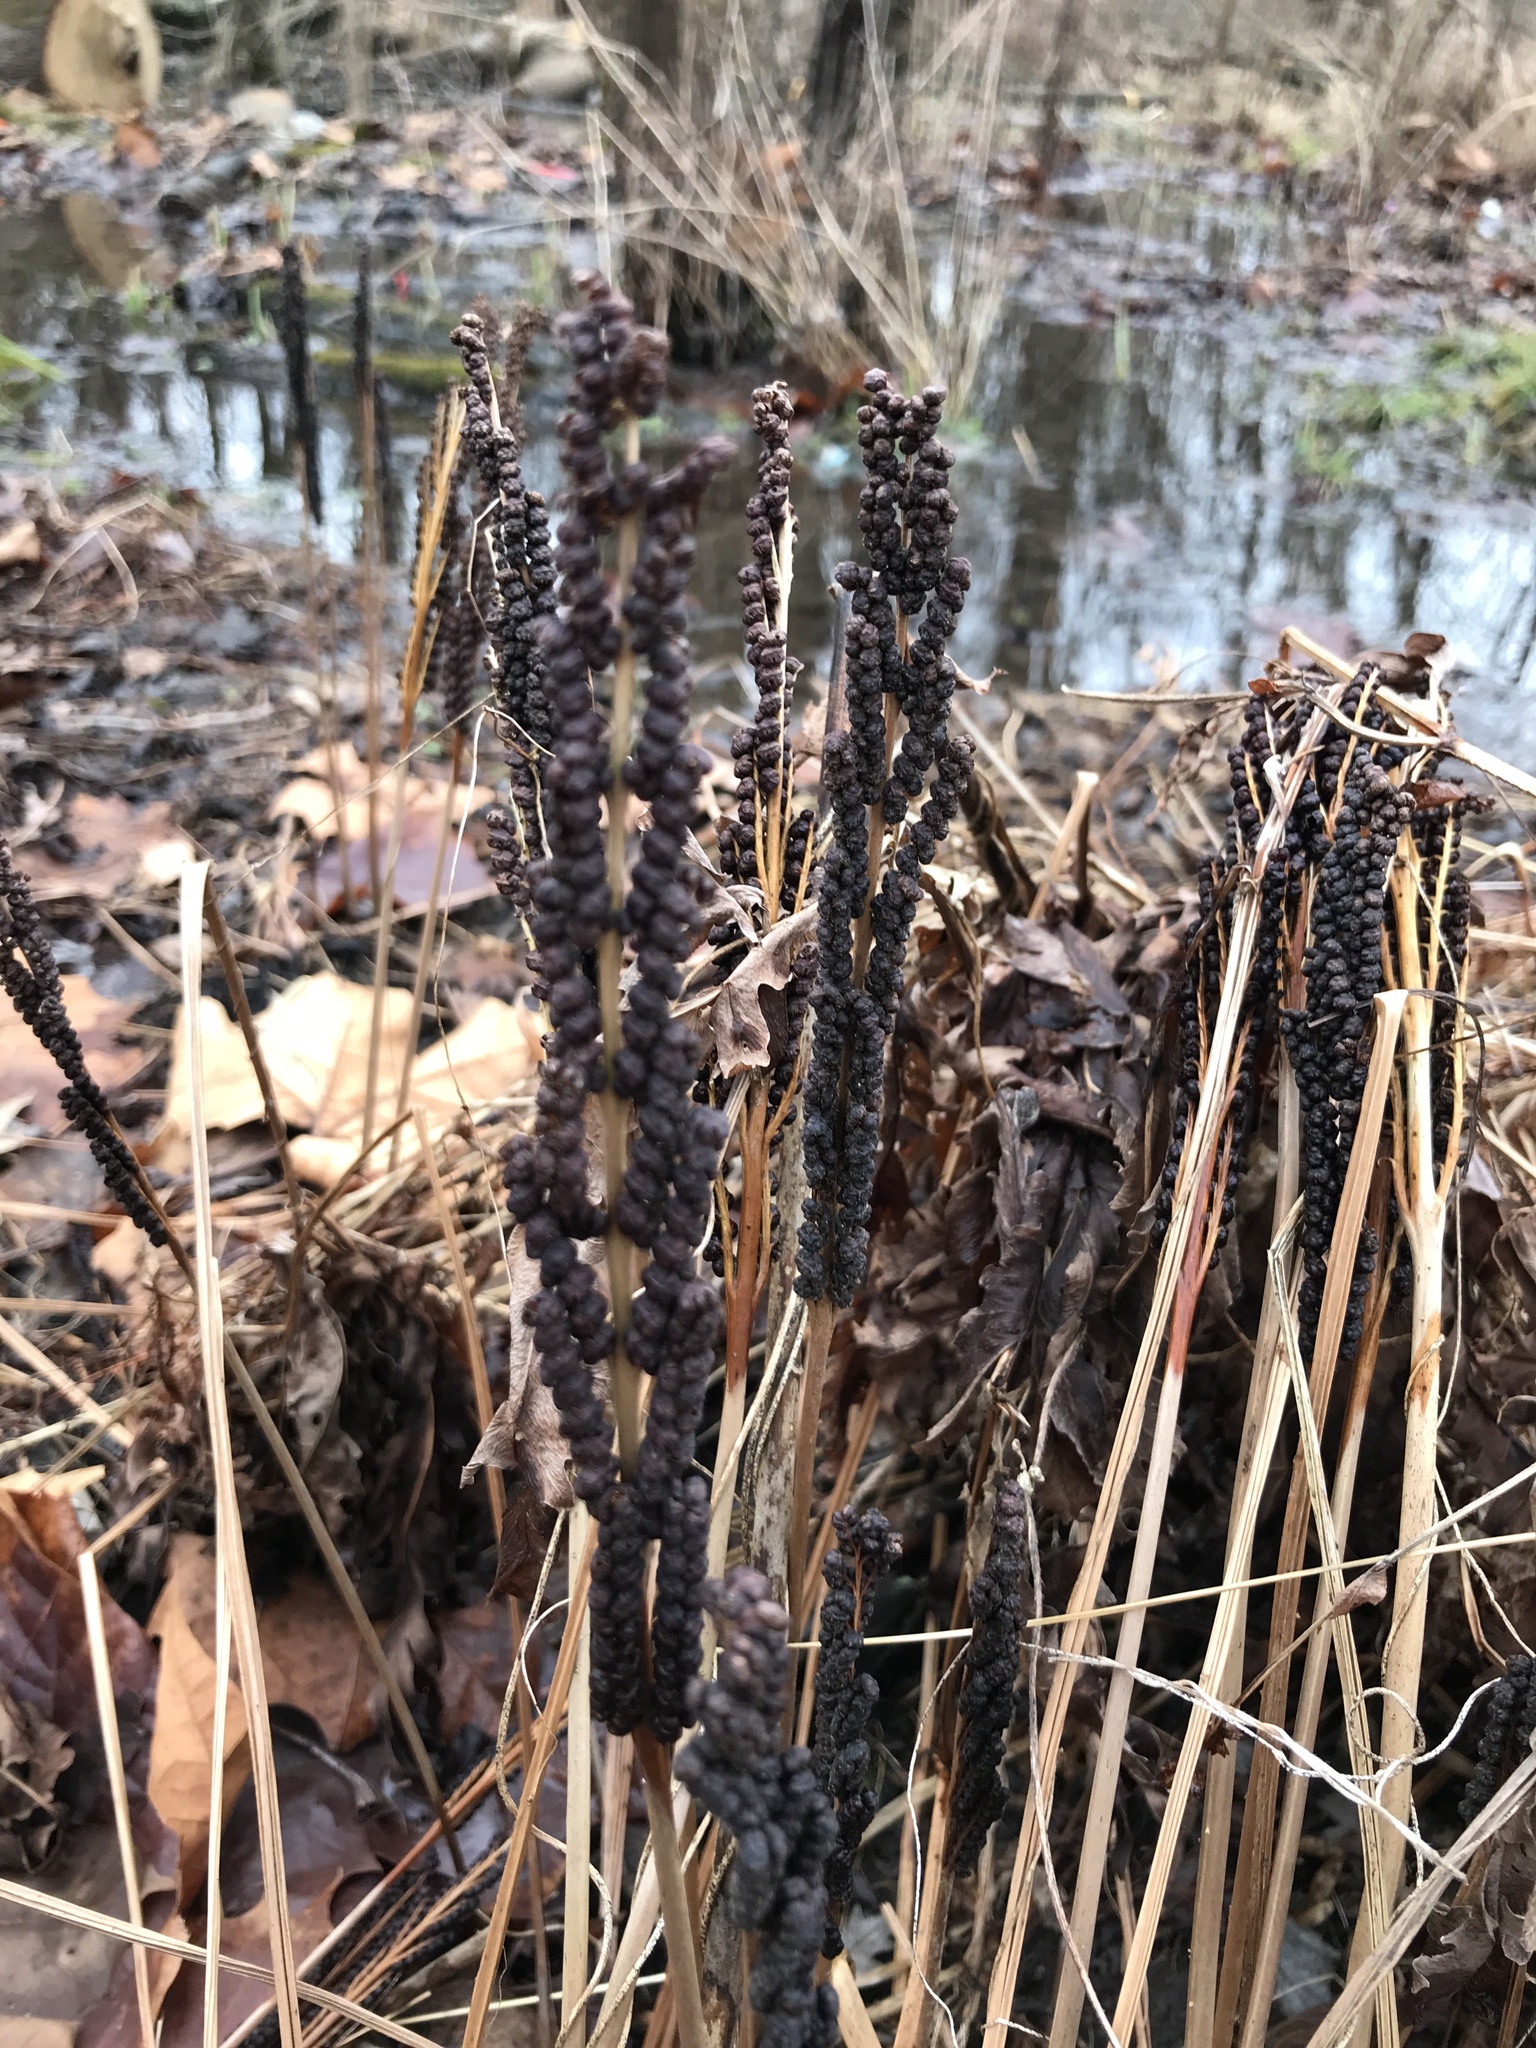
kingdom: Plantae
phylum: Tracheophyta
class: Polypodiopsida
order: Polypodiales
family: Onocleaceae
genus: Onoclea
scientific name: Onoclea sensibilis
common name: Sensitive fern
